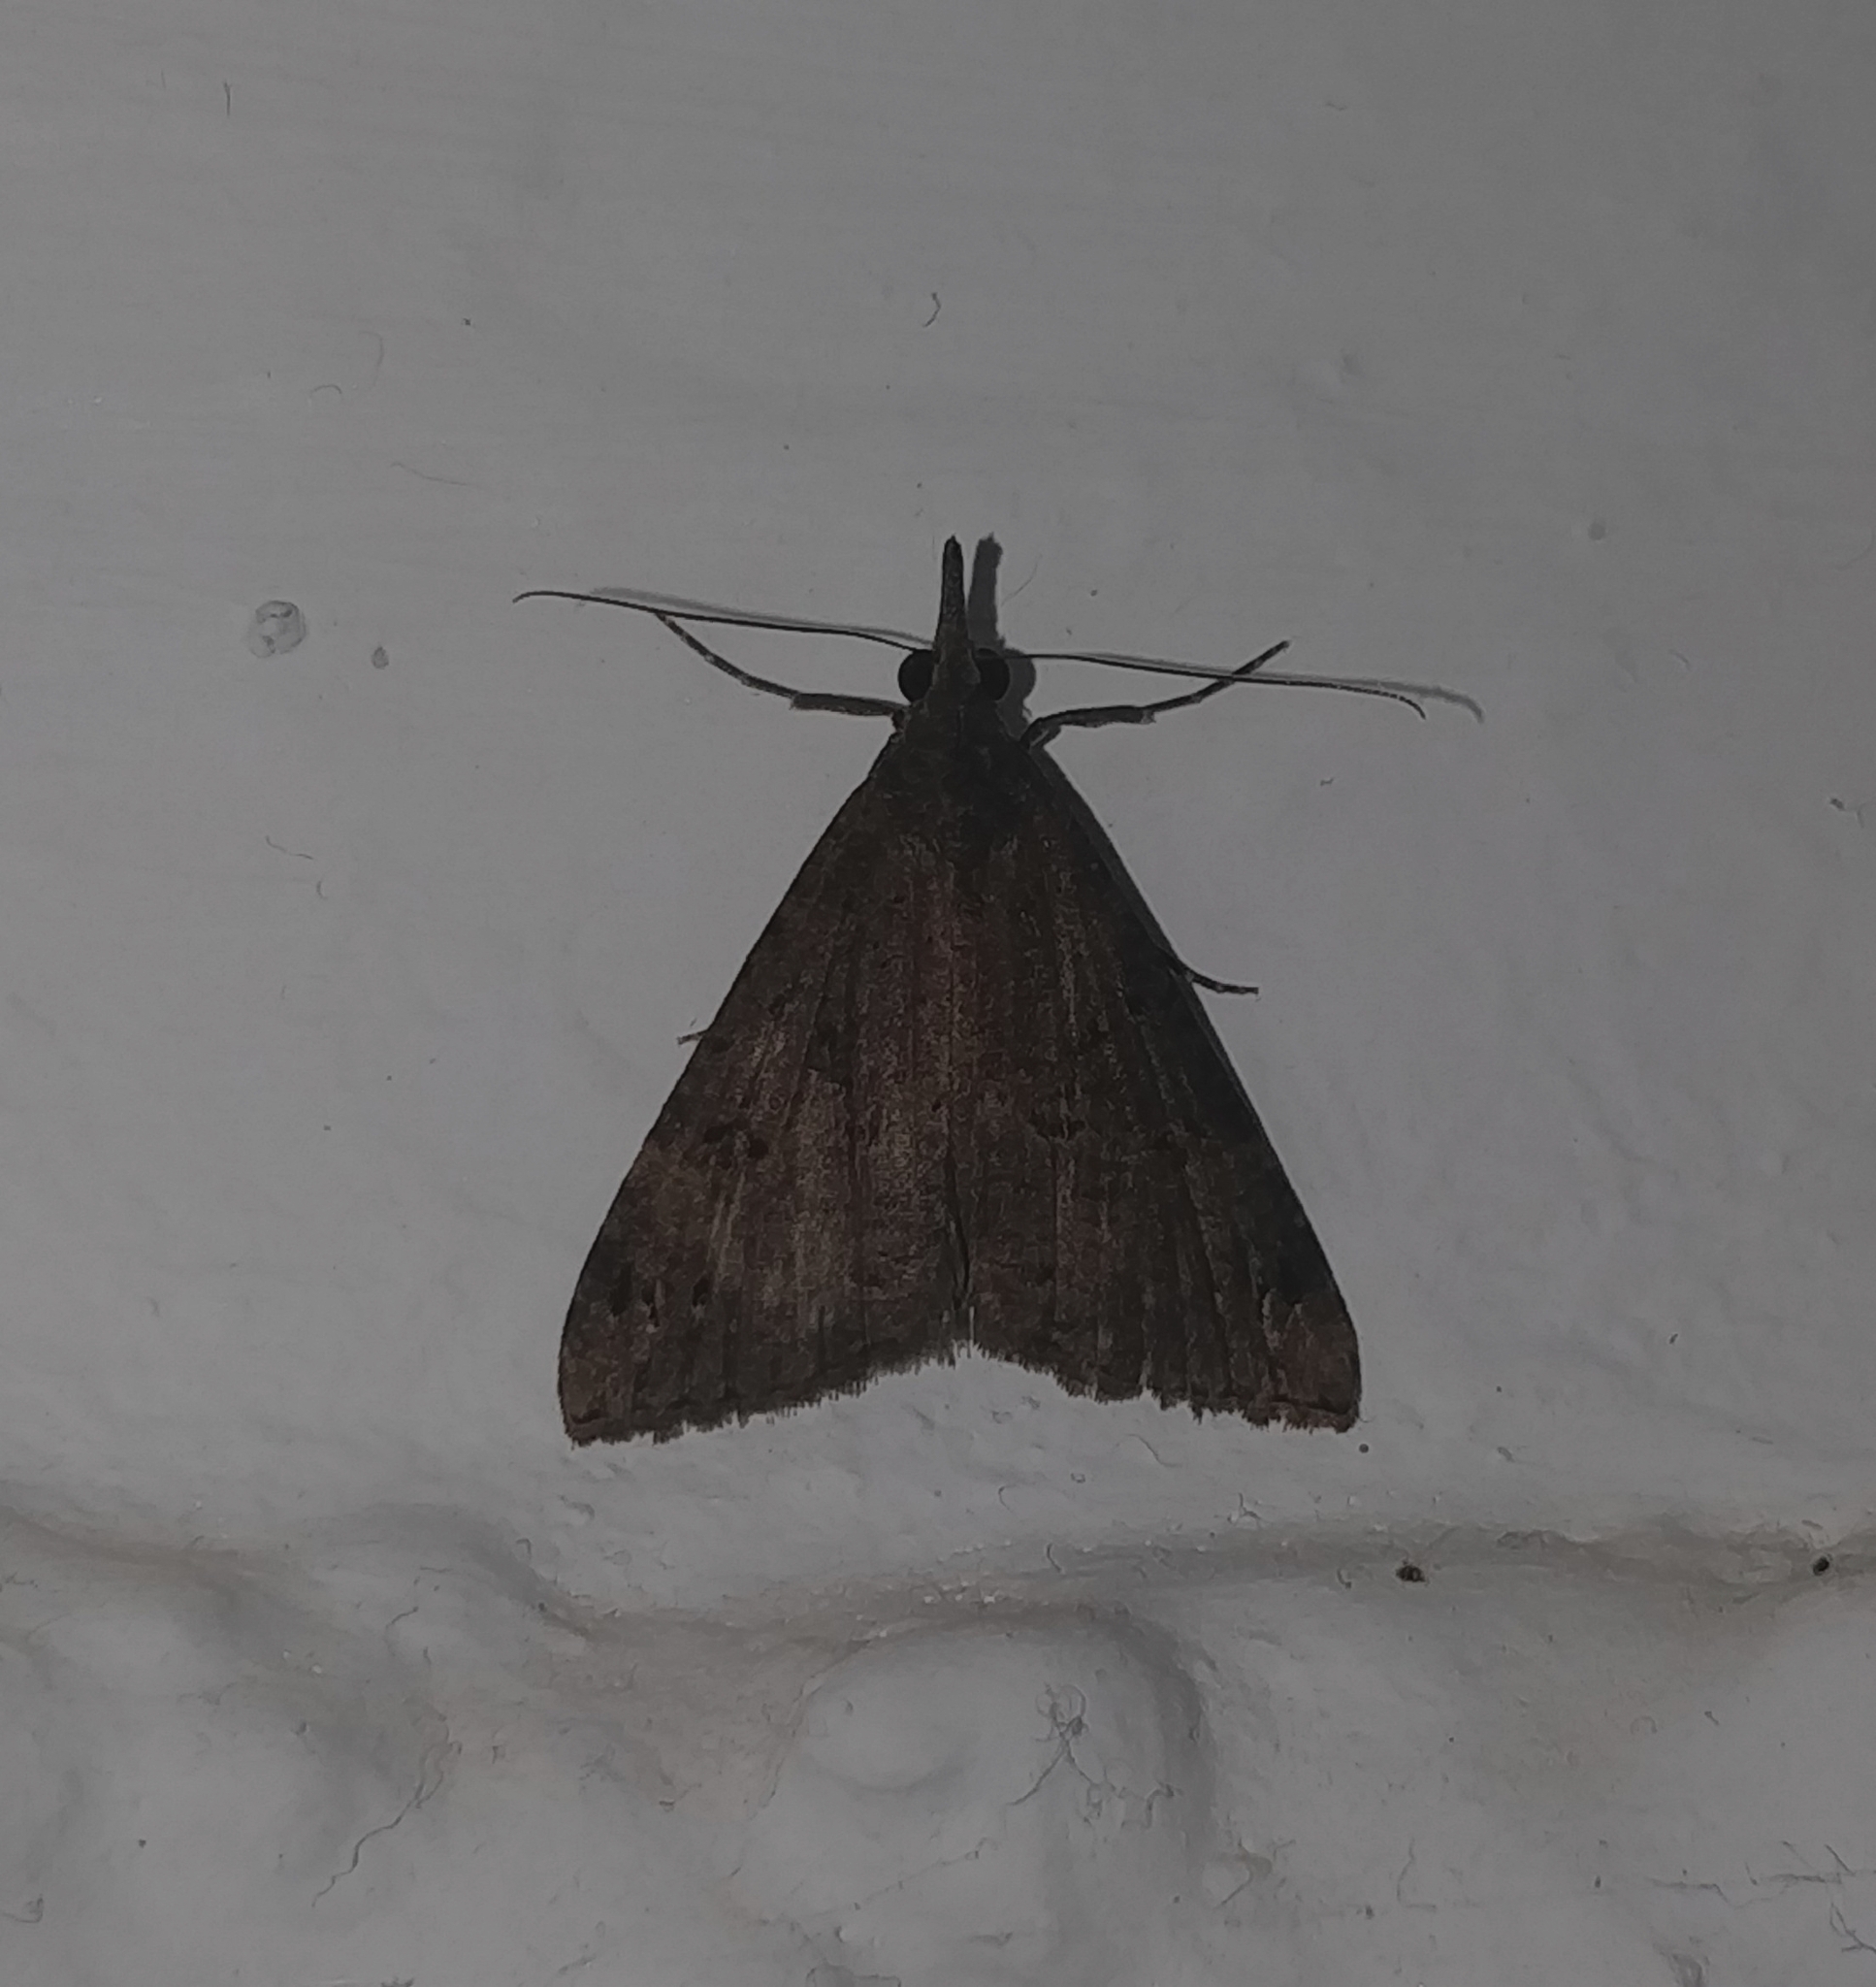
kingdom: Animalia
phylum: Arthropoda
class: Insecta
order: Lepidoptera
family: Erebidae
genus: Hypena
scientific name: Hypena obsitalis
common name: Bloxworth snout
